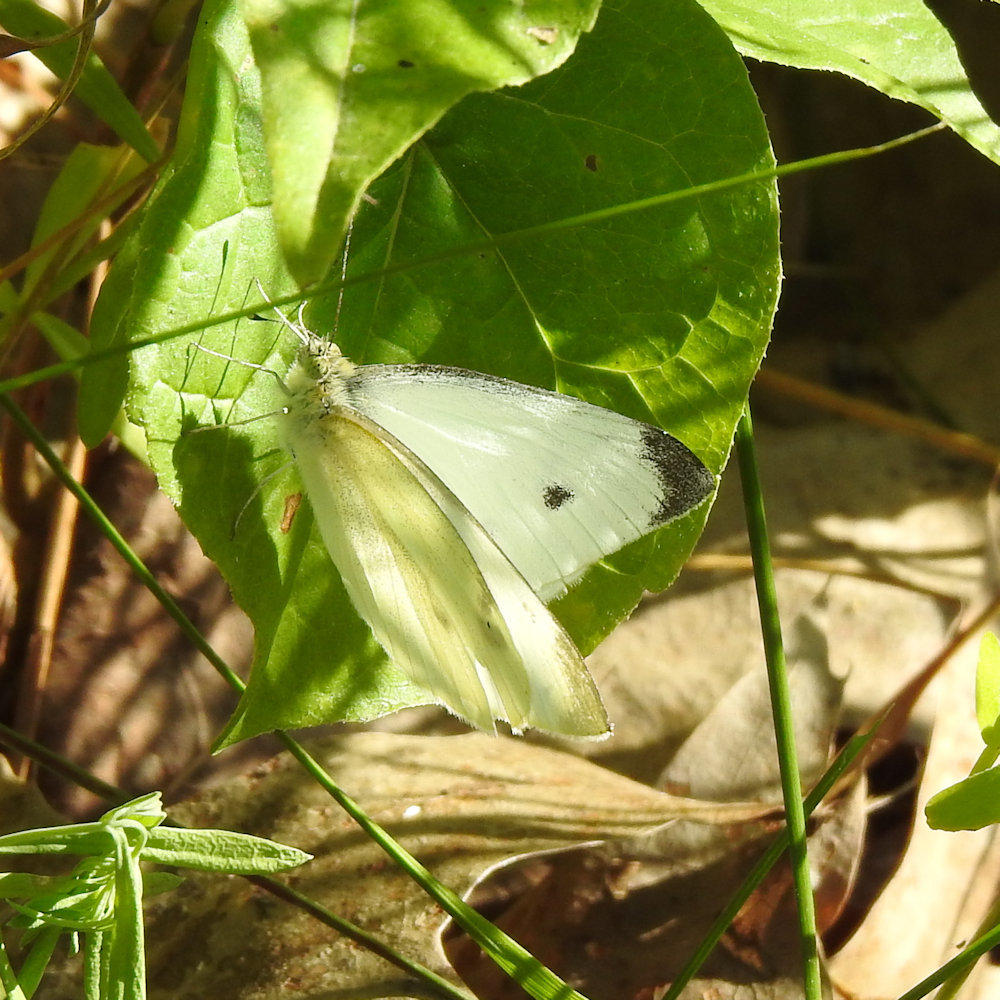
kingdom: Animalia
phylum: Arthropoda
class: Insecta
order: Lepidoptera
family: Pieridae
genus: Pieris
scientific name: Pieris rapae
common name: Small white
